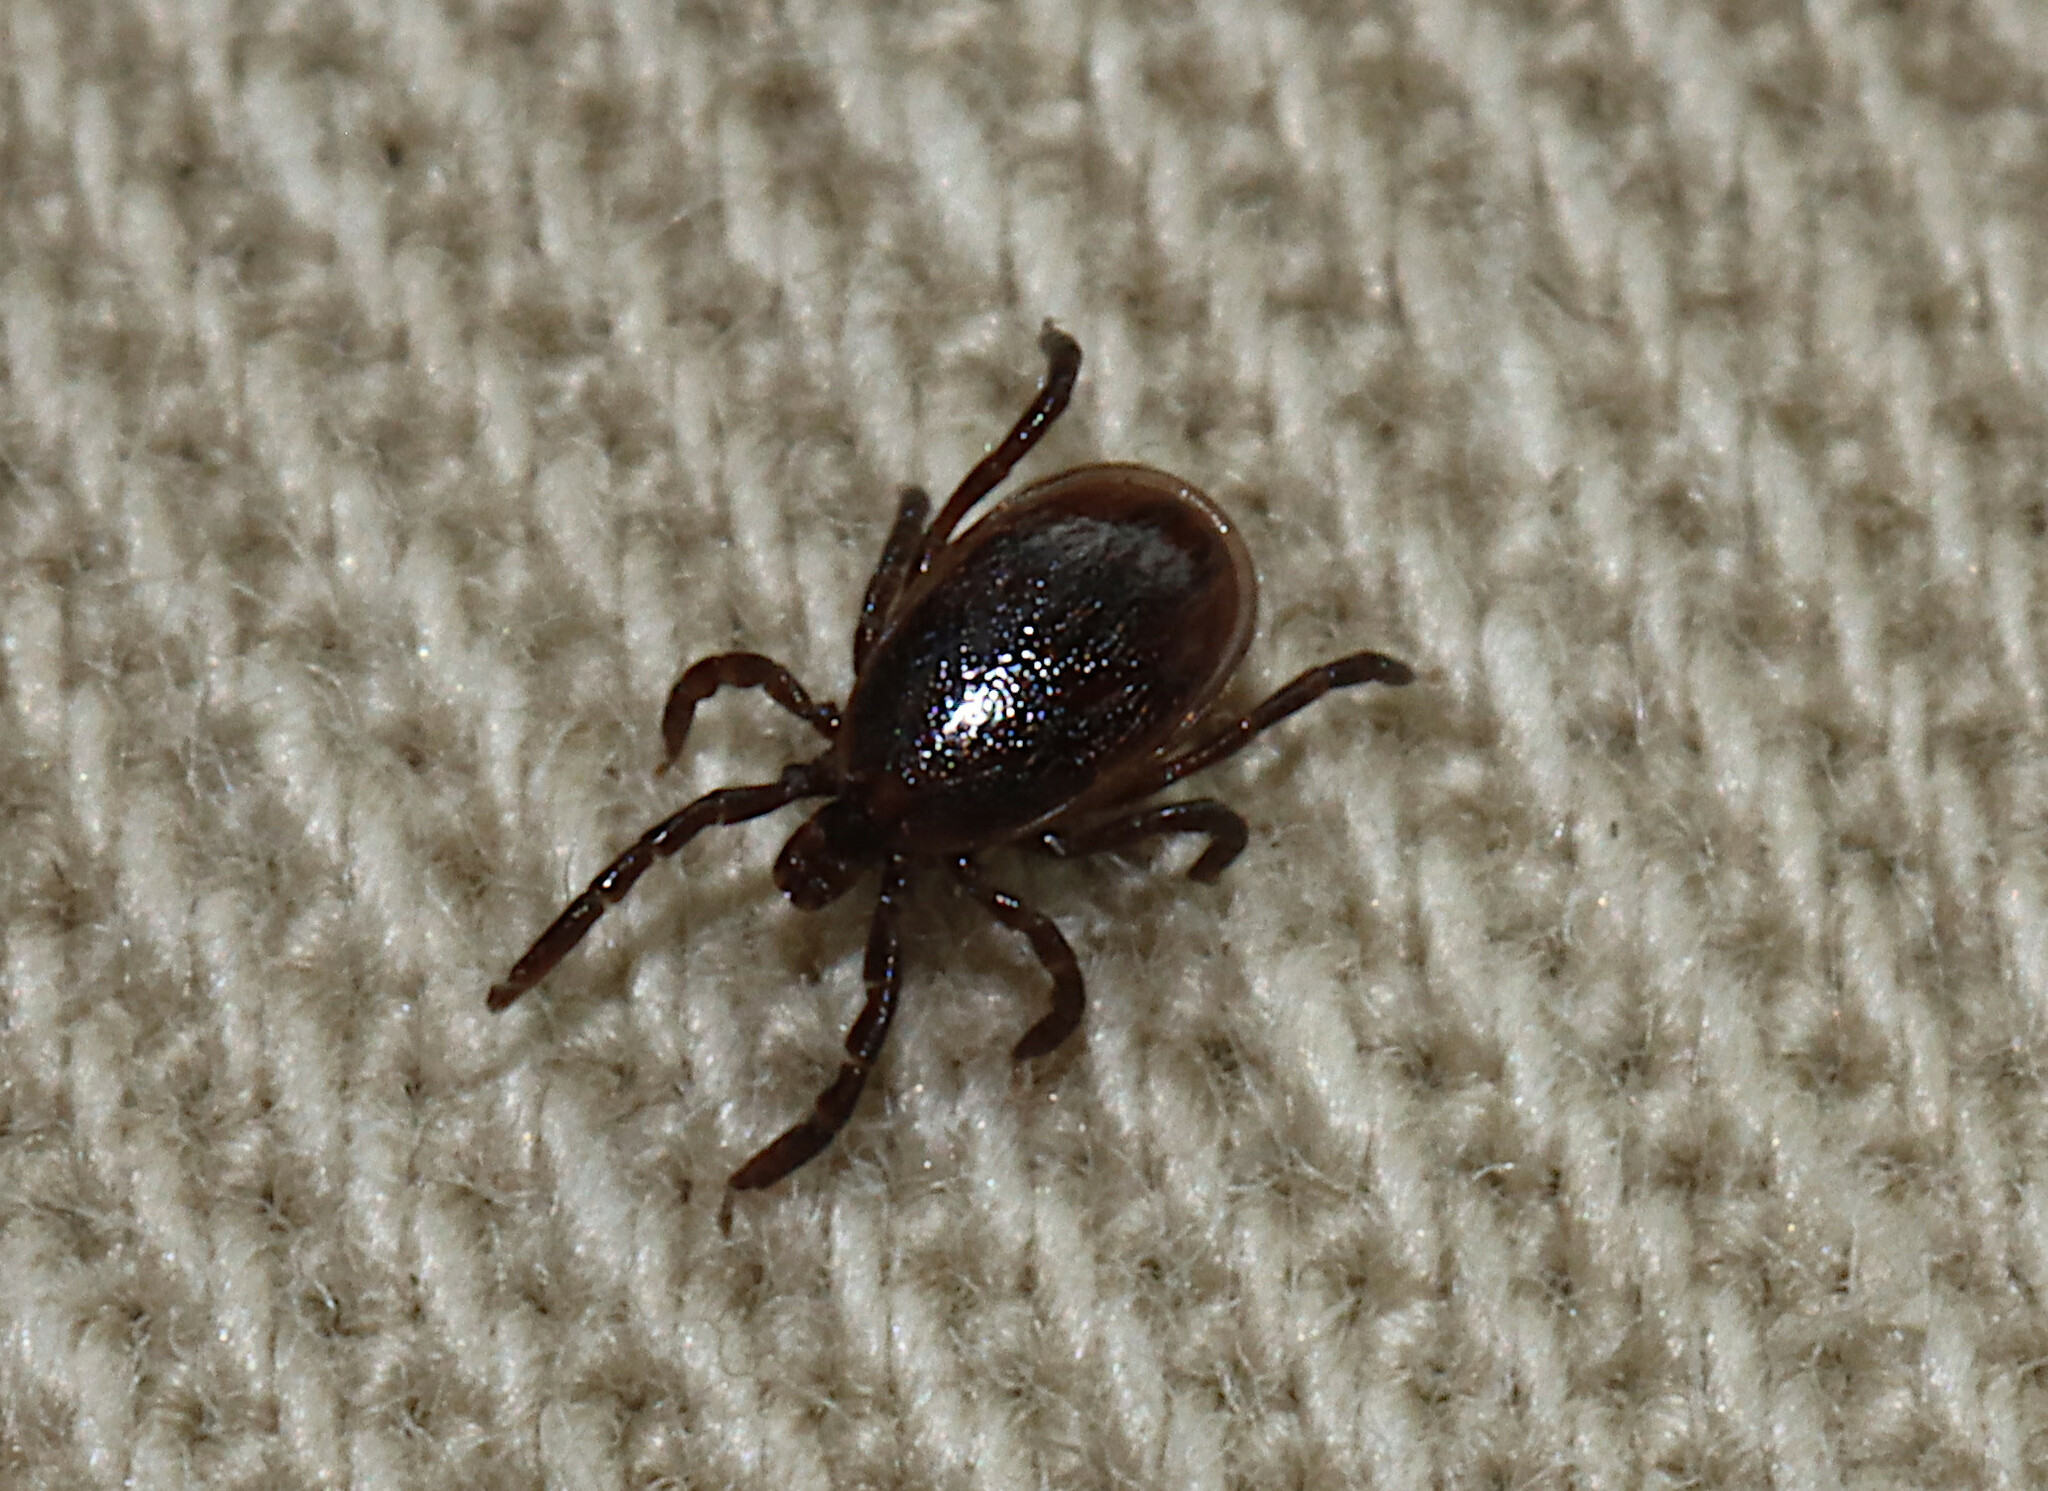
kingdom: Animalia
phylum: Arthropoda
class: Arachnida
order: Ixodida
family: Ixodidae
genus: Ixodes
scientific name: Ixodes scapularis
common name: Black legged tick
